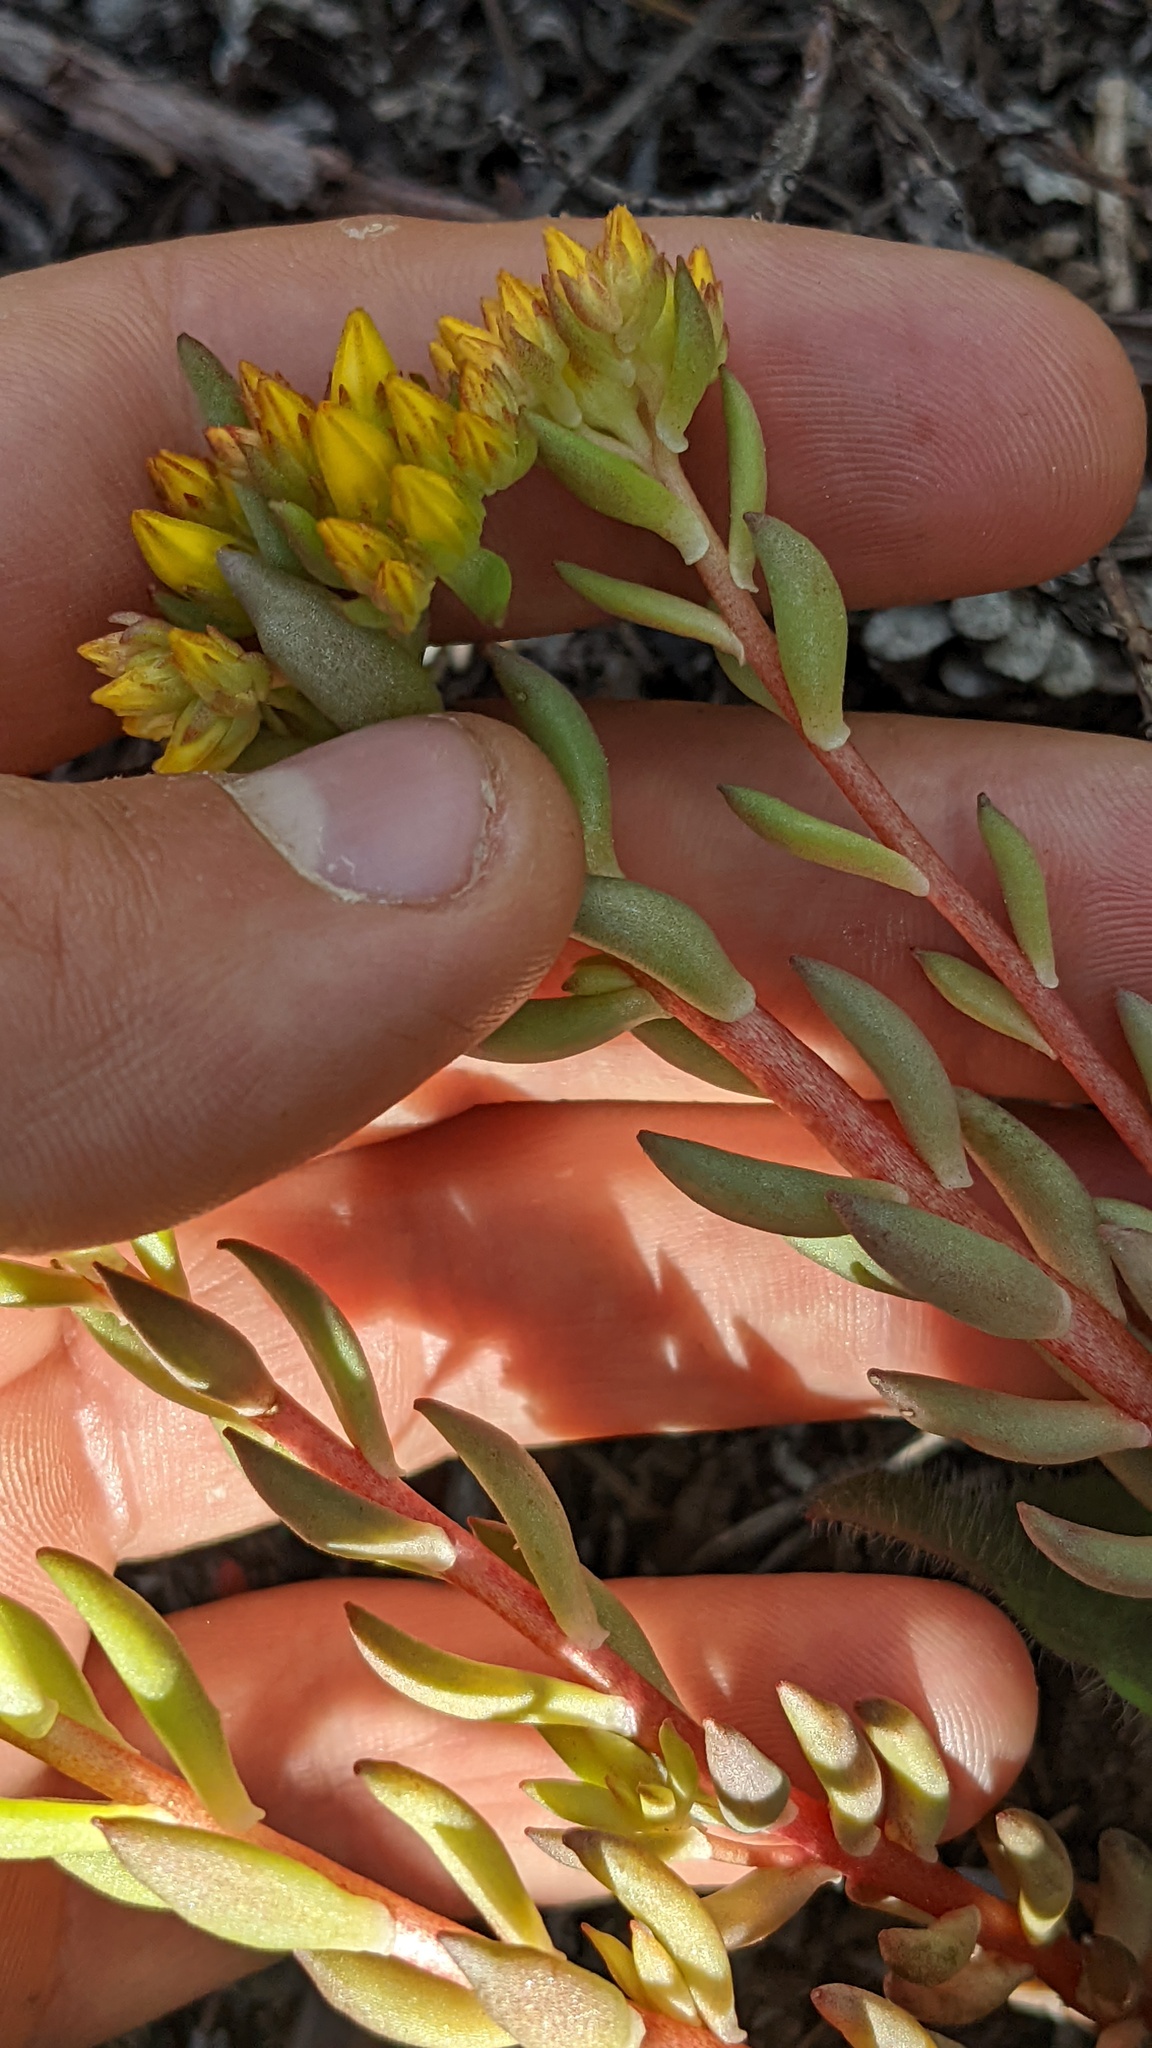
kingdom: Plantae
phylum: Tracheophyta
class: Magnoliopsida
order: Saxifragales
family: Crassulaceae
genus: Sedum
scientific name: Sedum lanceolatum
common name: Common stonecrop
